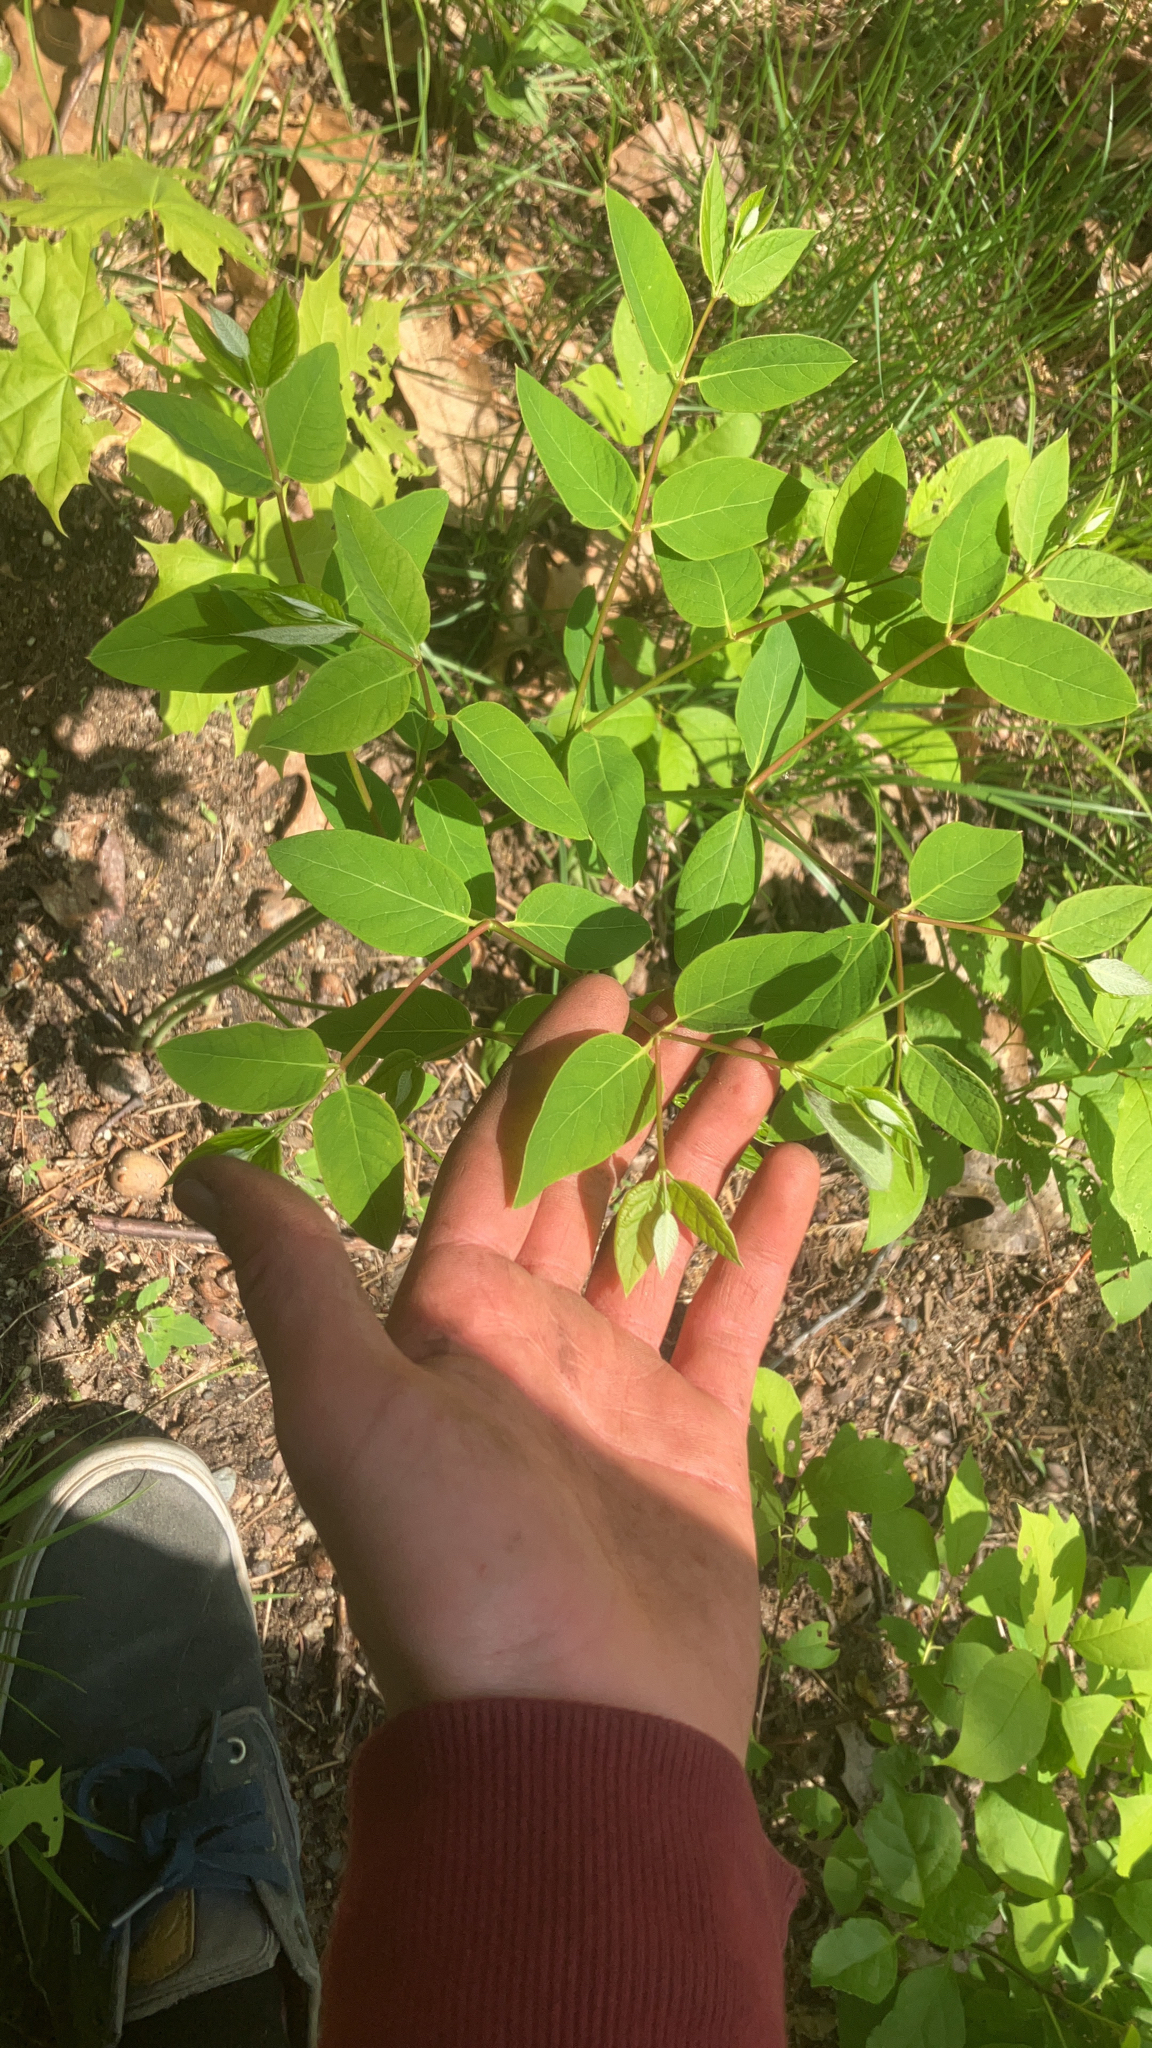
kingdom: Plantae
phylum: Tracheophyta
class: Magnoliopsida
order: Gentianales
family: Apocynaceae
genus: Apocynum
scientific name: Apocynum androsaemifolium
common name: Spreading dogbane
